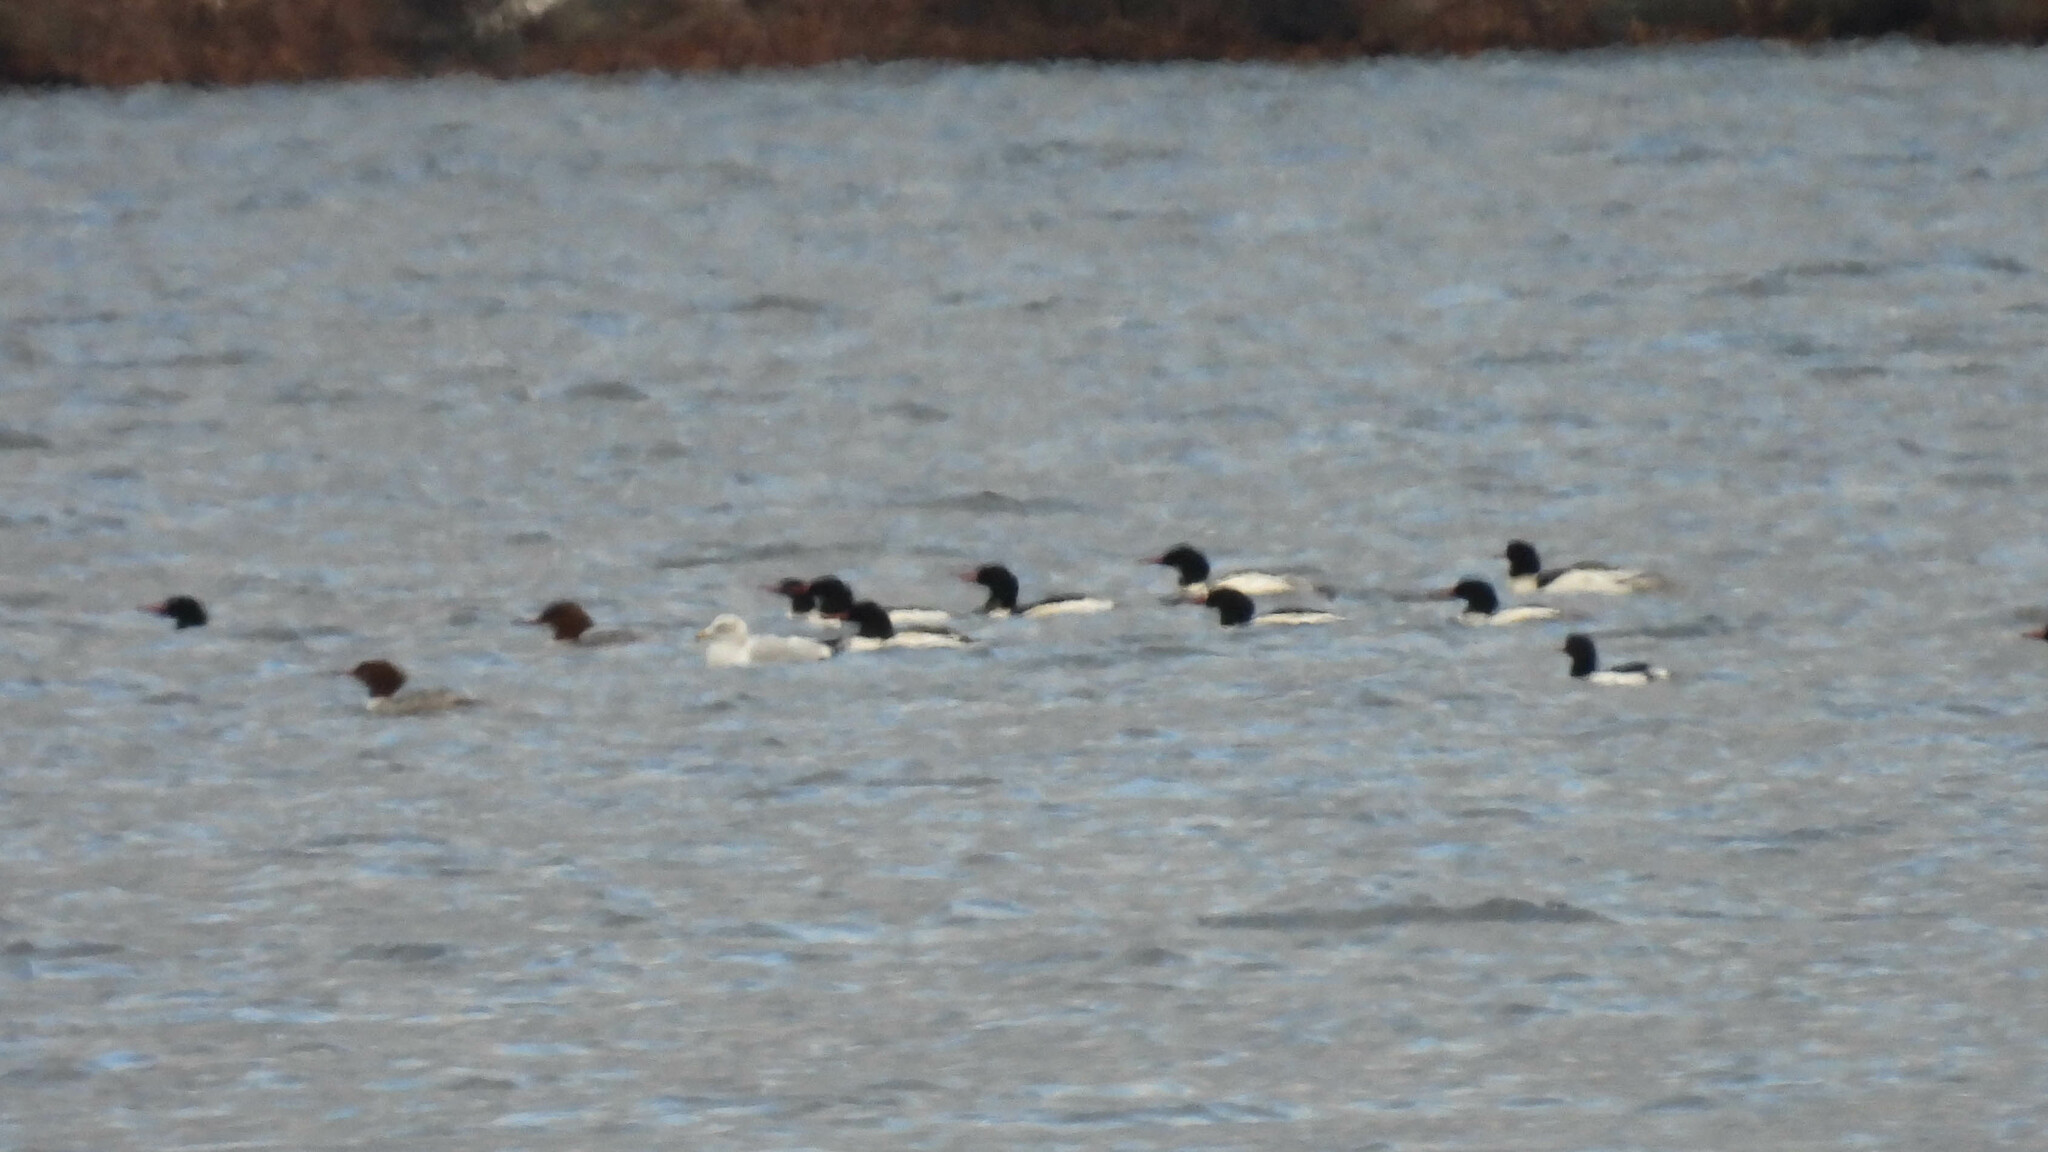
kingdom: Animalia
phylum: Chordata
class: Aves
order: Anseriformes
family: Anatidae
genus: Mergus
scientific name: Mergus merganser
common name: Common merganser
